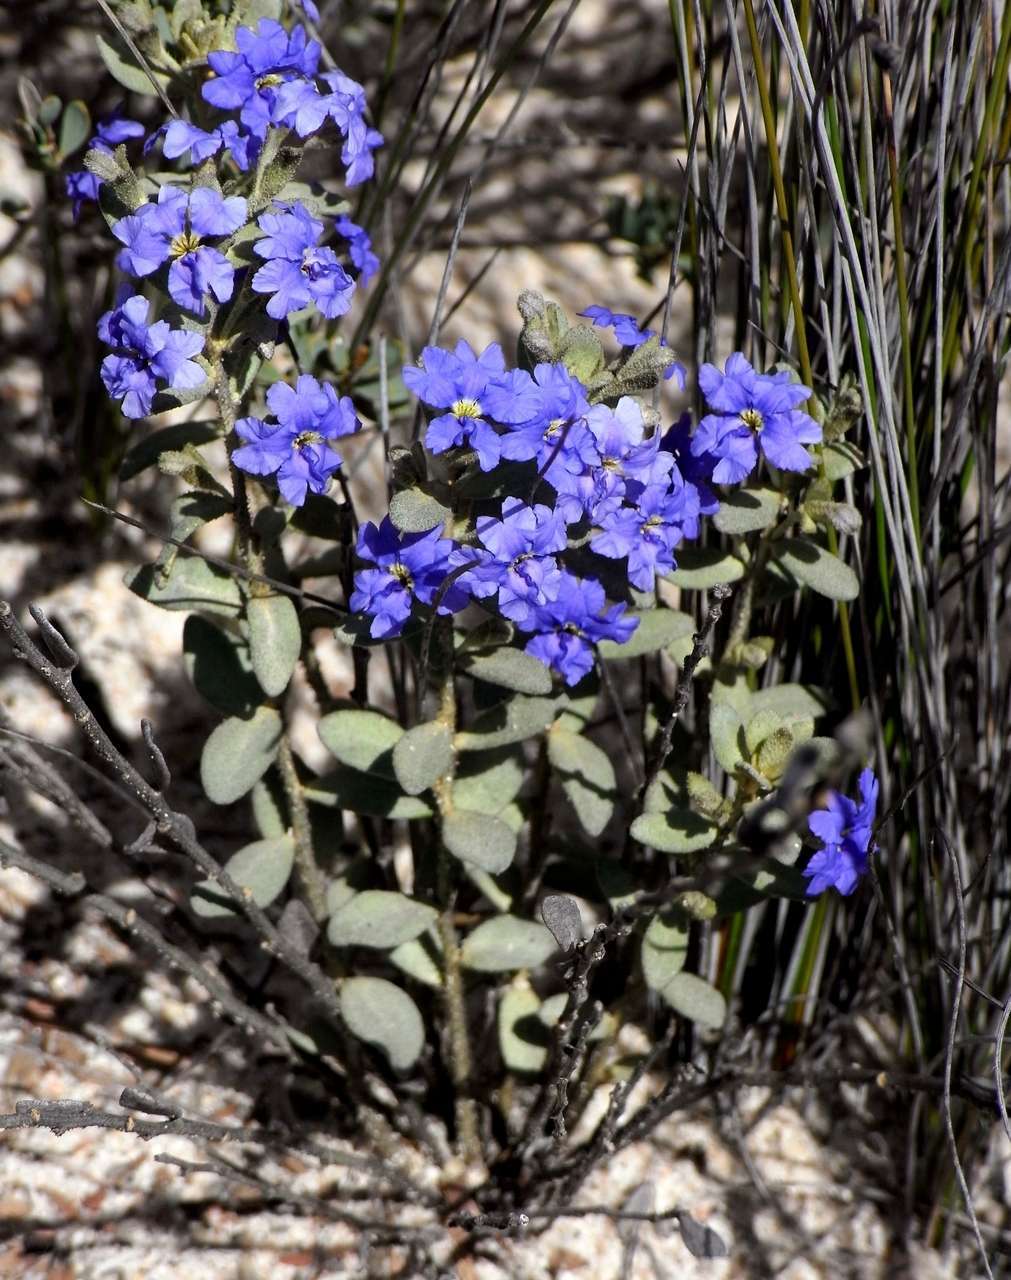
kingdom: Plantae
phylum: Tracheophyta
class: Magnoliopsida
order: Asterales
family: Goodeniaceae
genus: Dampiera
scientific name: Dampiera marifolia
